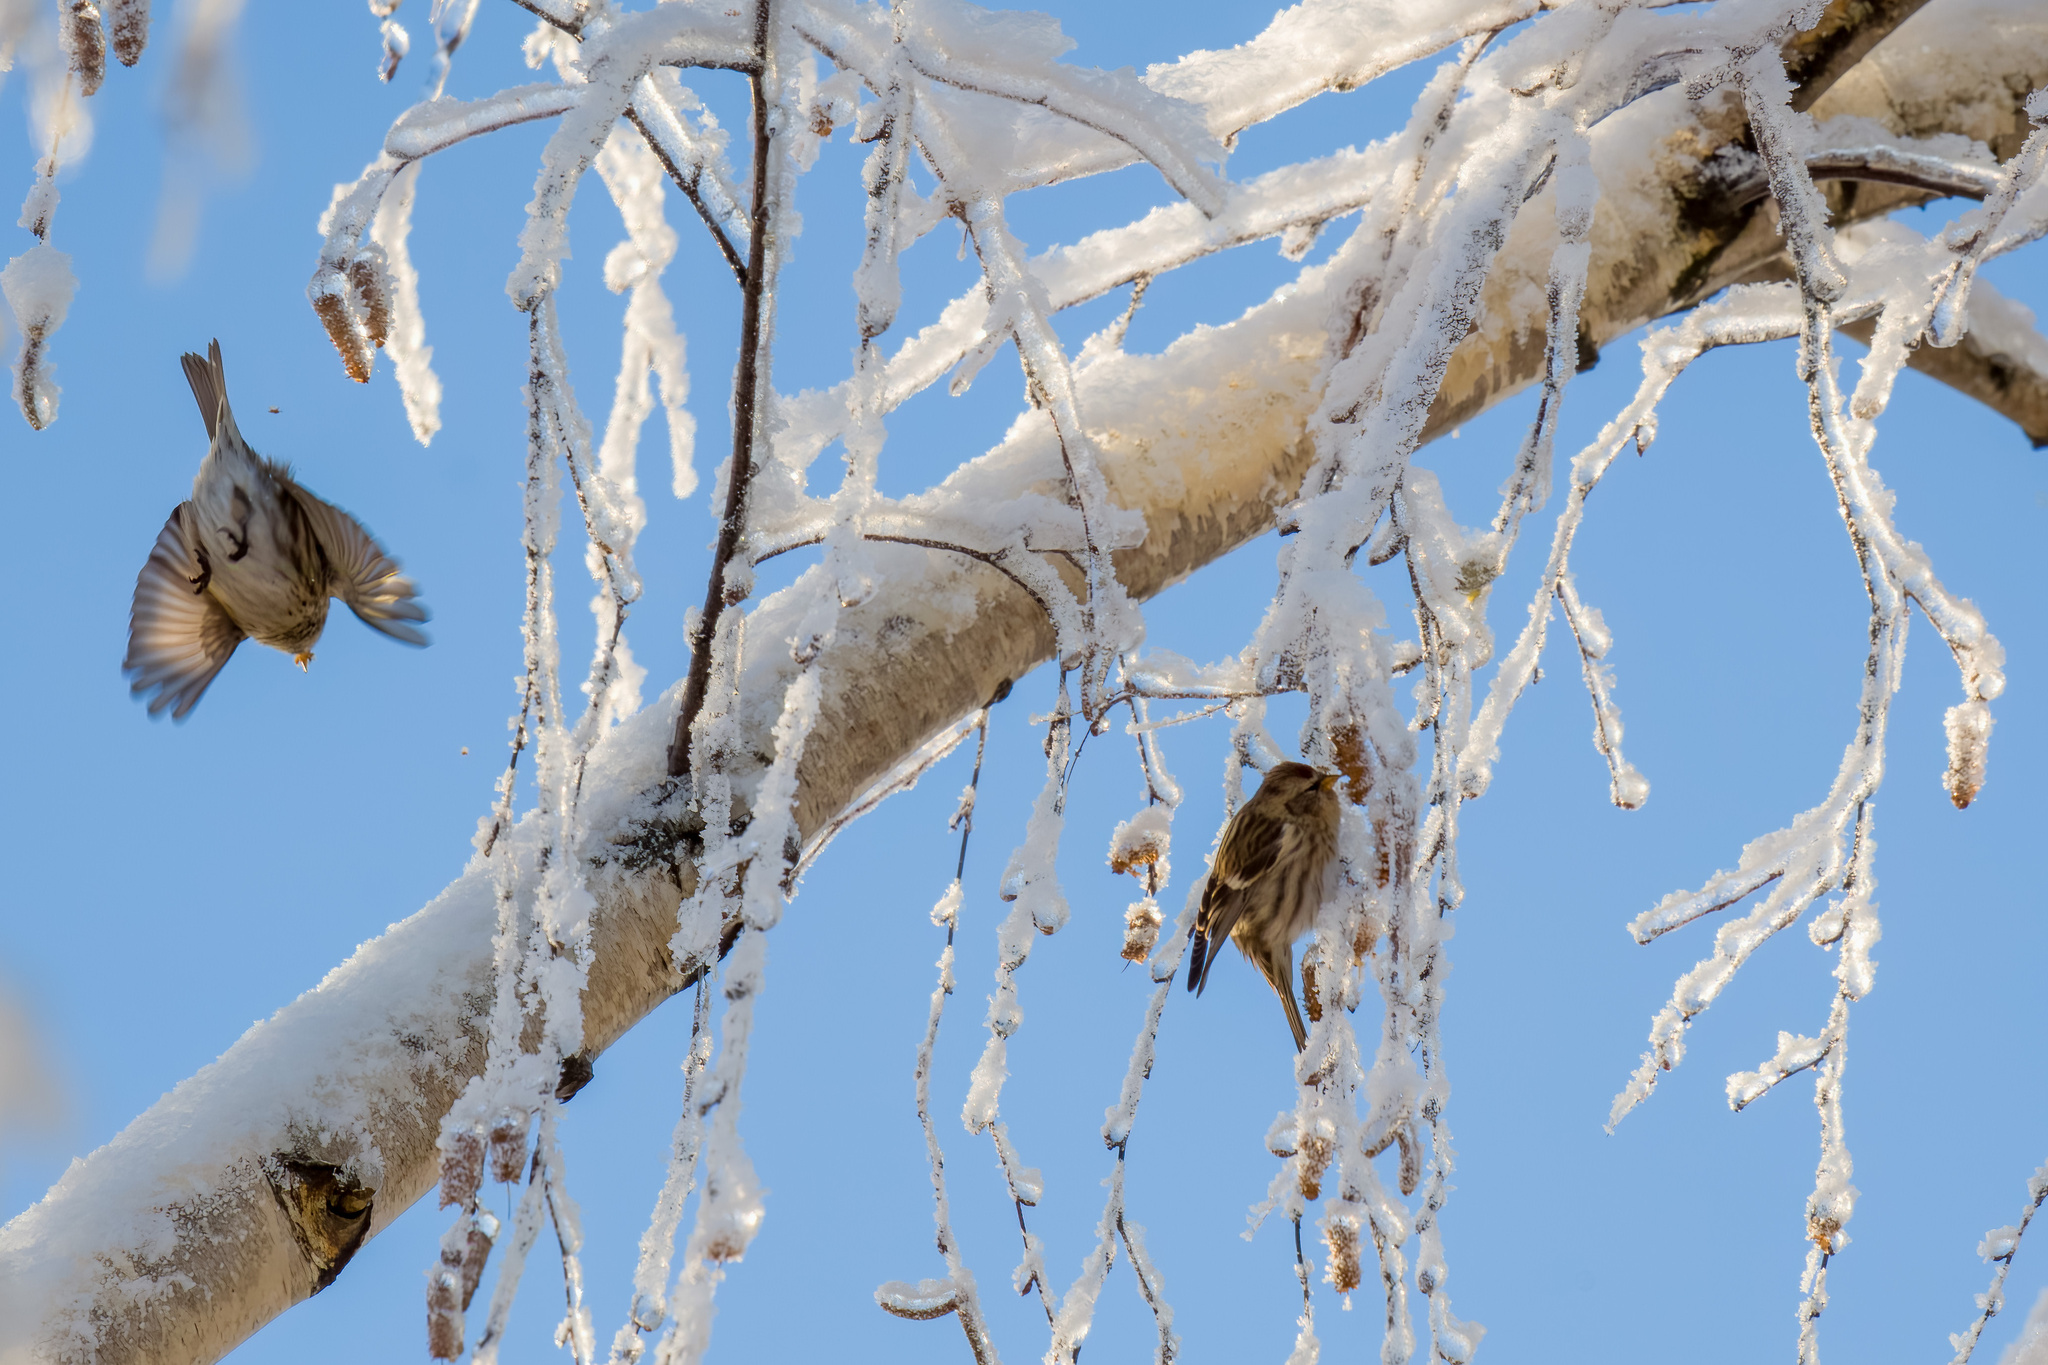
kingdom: Animalia
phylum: Chordata
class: Aves
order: Passeriformes
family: Fringillidae
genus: Acanthis
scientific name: Acanthis flammea
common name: Common redpoll
